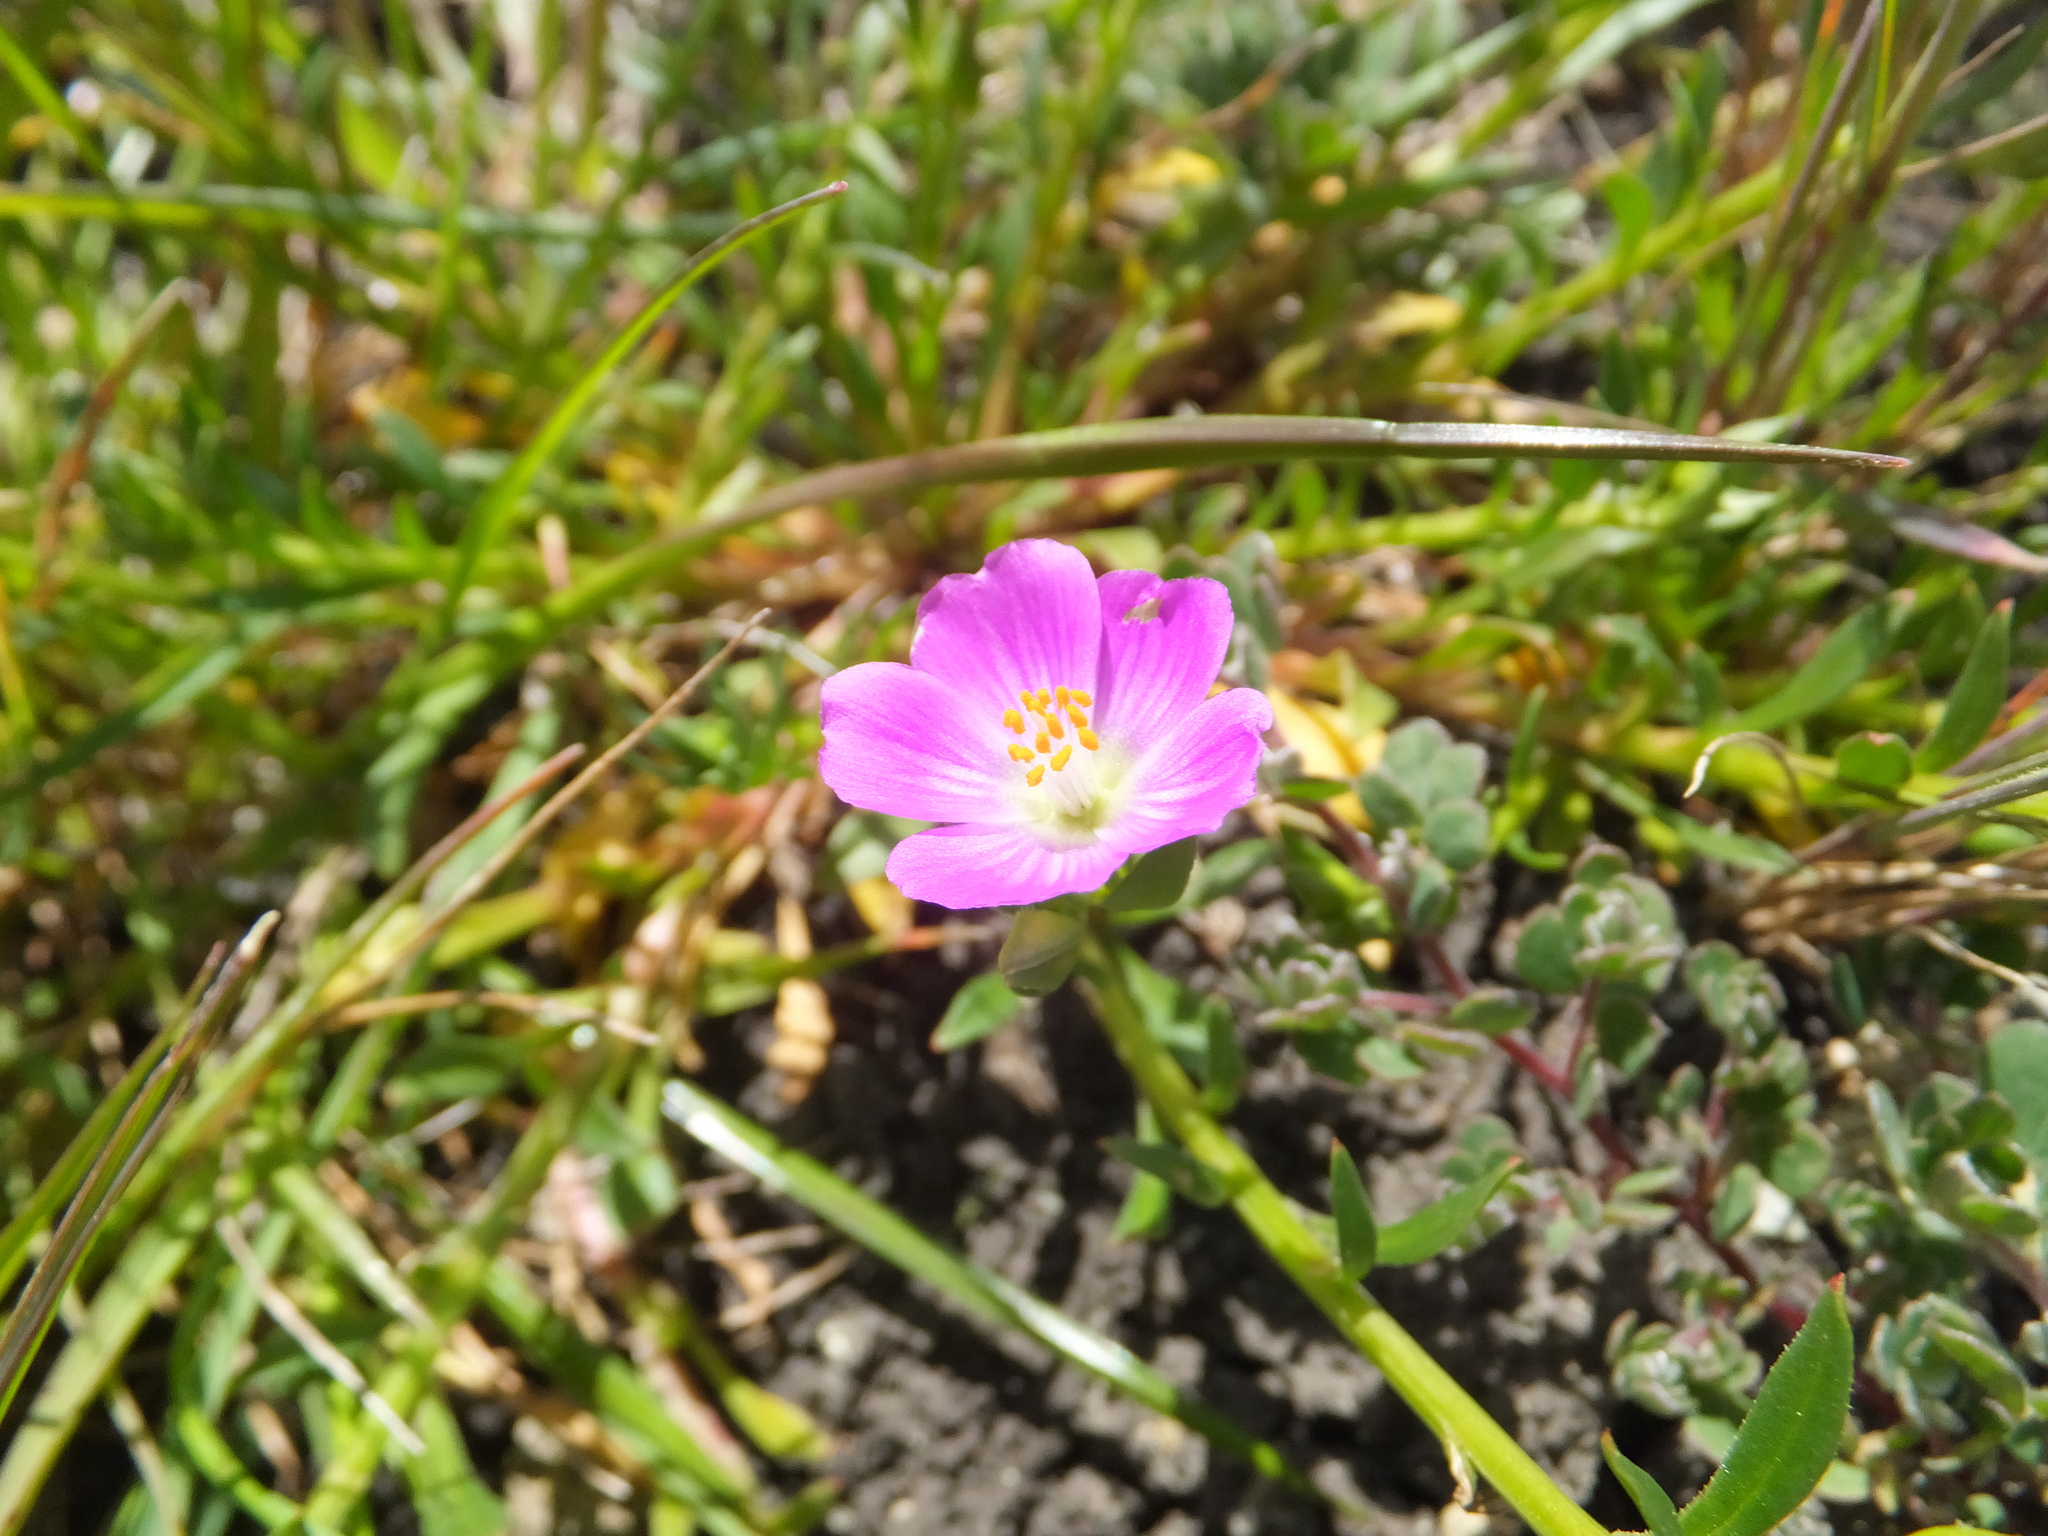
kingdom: Plantae
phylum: Tracheophyta
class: Magnoliopsida
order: Caryophyllales
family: Montiaceae
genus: Calandrinia
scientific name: Calandrinia menziesii
